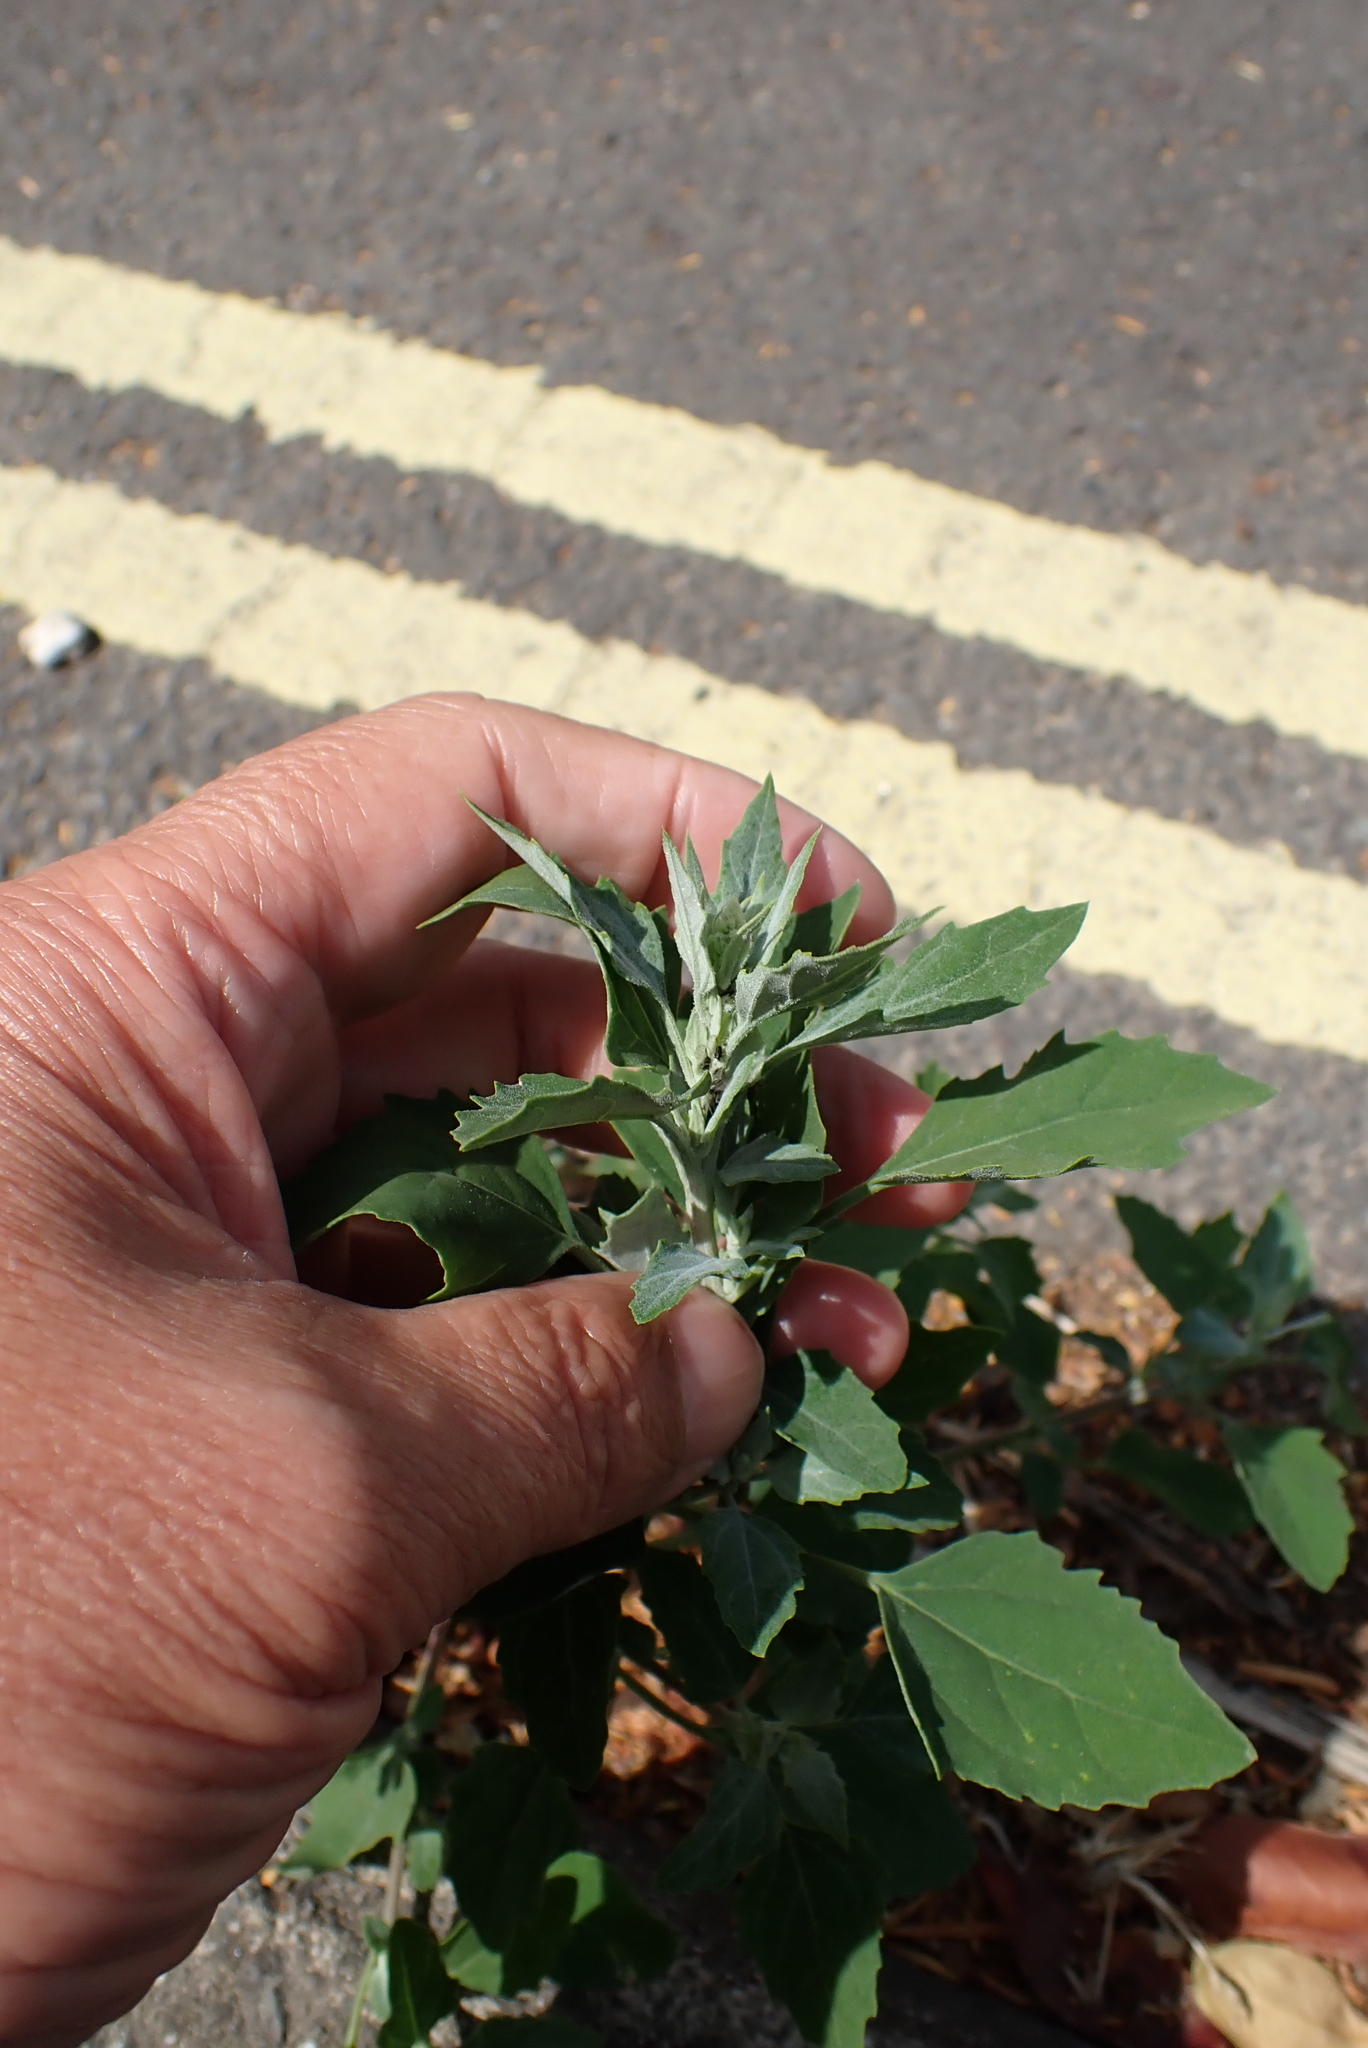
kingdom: Plantae
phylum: Tracheophyta
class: Magnoliopsida
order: Caryophyllales
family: Amaranthaceae
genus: Chenopodium
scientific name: Chenopodium album
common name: Fat-hen
